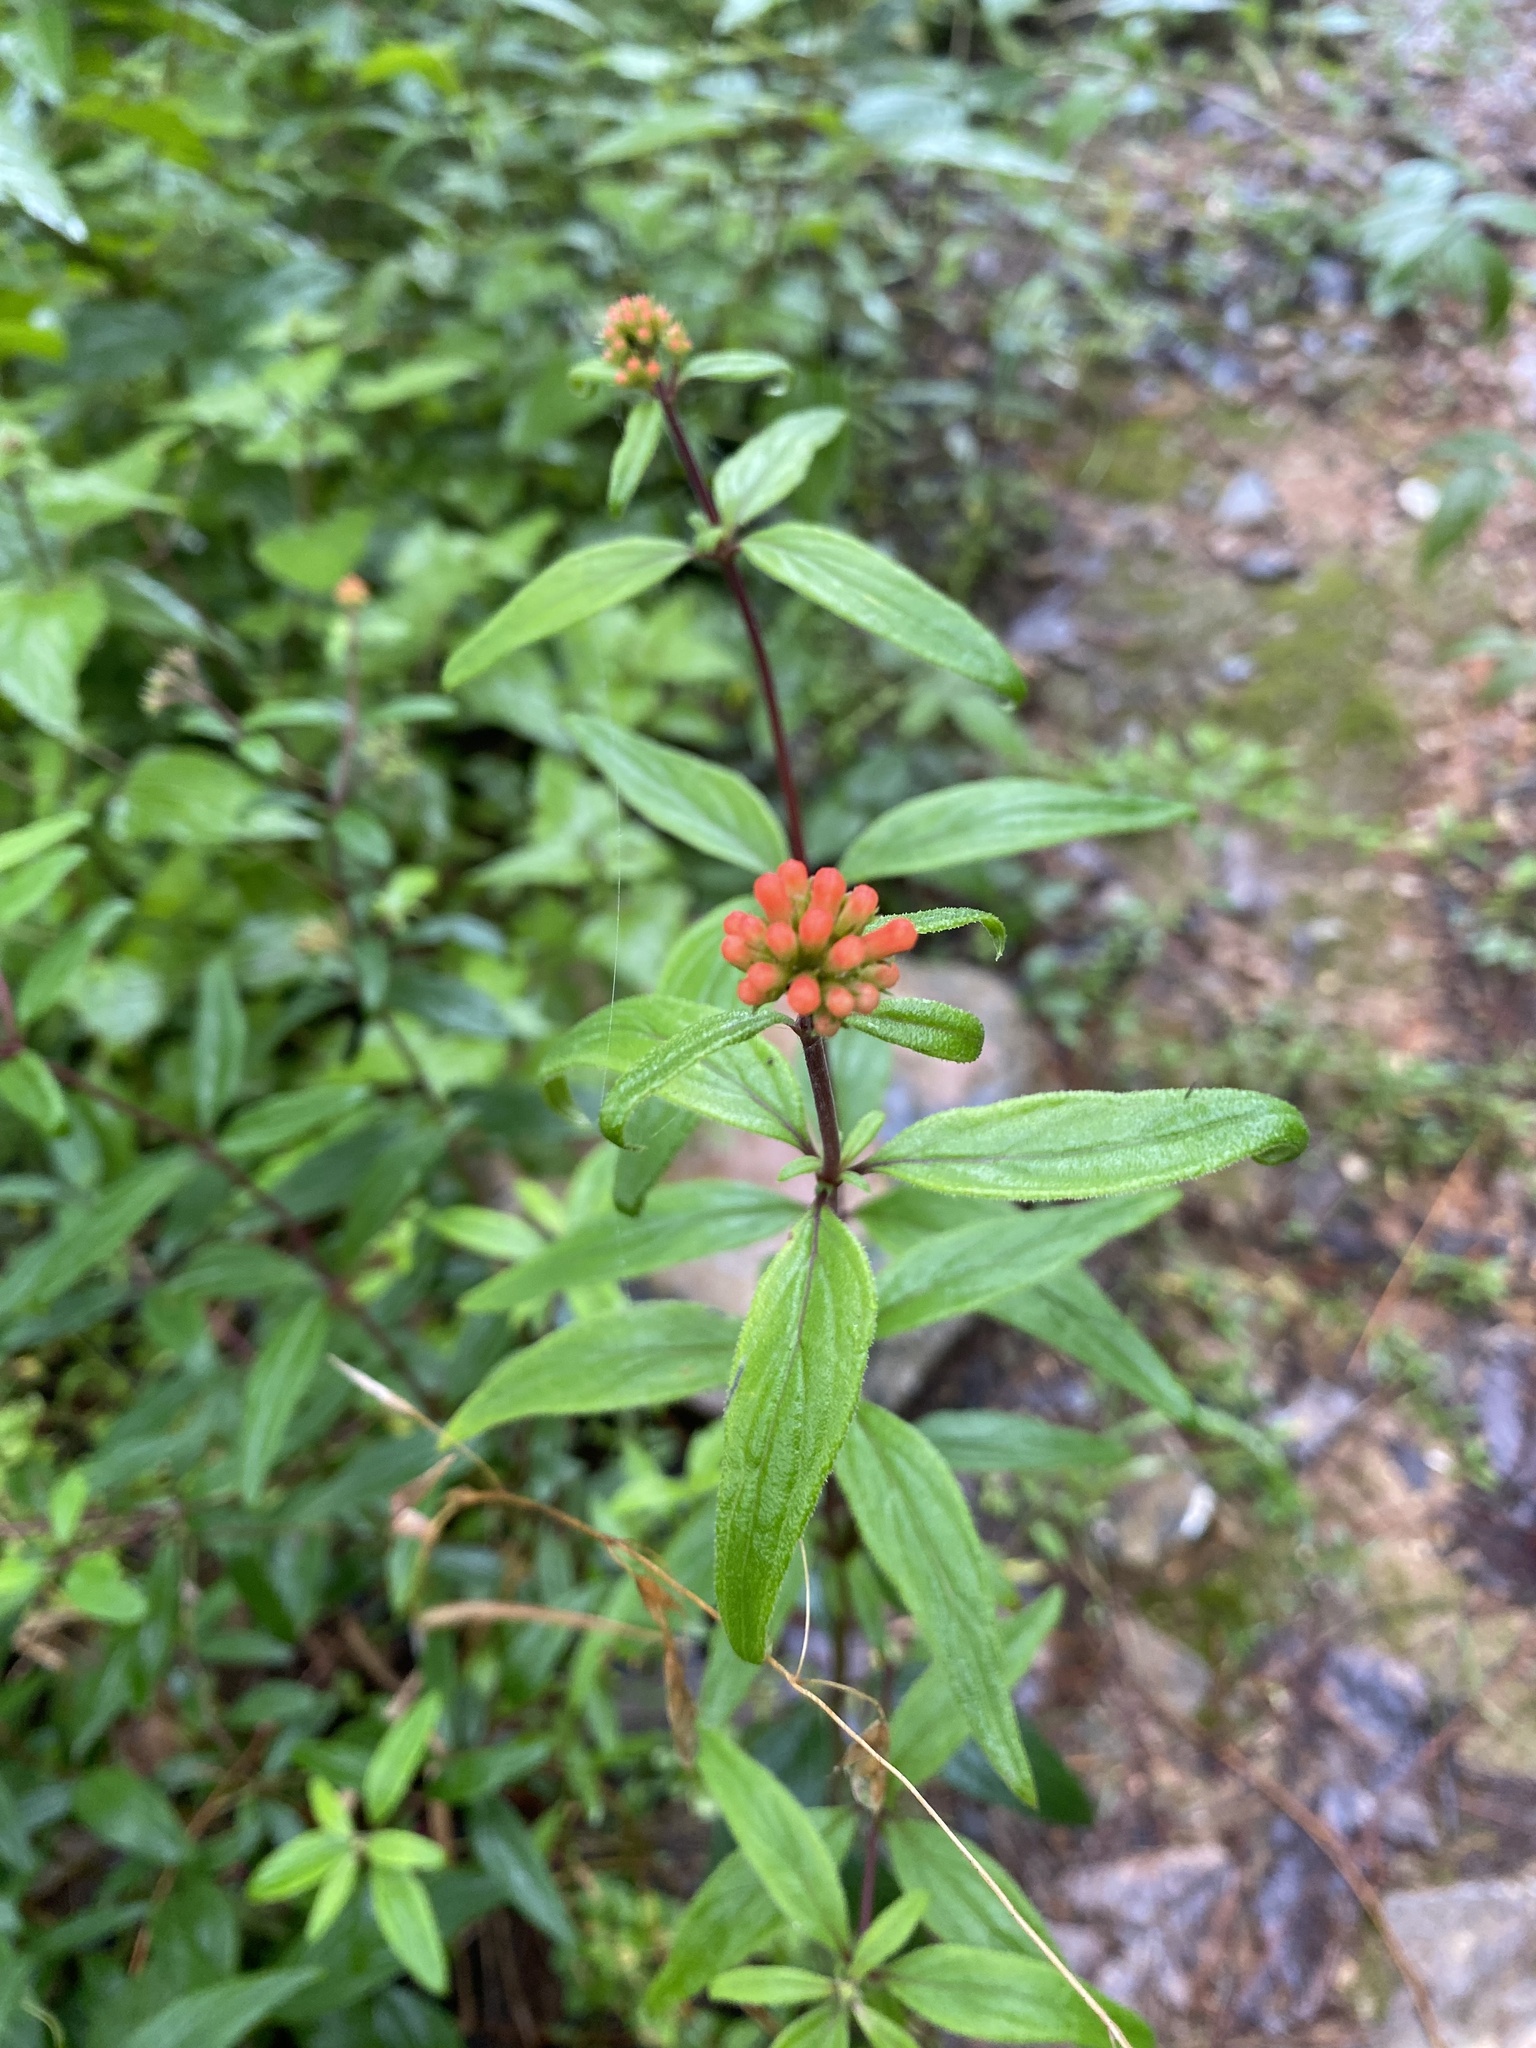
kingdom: Plantae
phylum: Tracheophyta
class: Magnoliopsida
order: Gentianales
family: Rubiaceae
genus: Bouvardia
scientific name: Bouvardia ternifolia
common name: Scarlet bouvardia
